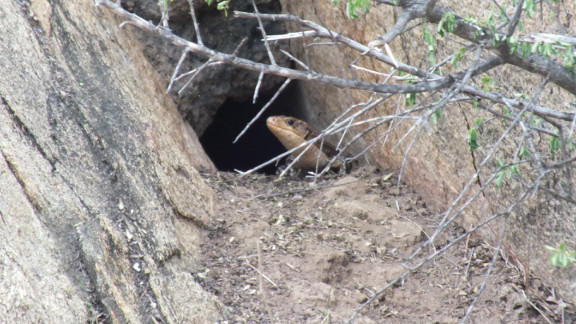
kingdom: Animalia
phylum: Chordata
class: Squamata
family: Gerrhosauridae
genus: Broadleysaurus
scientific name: Broadleysaurus major
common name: Rough-scaled plated lizard
